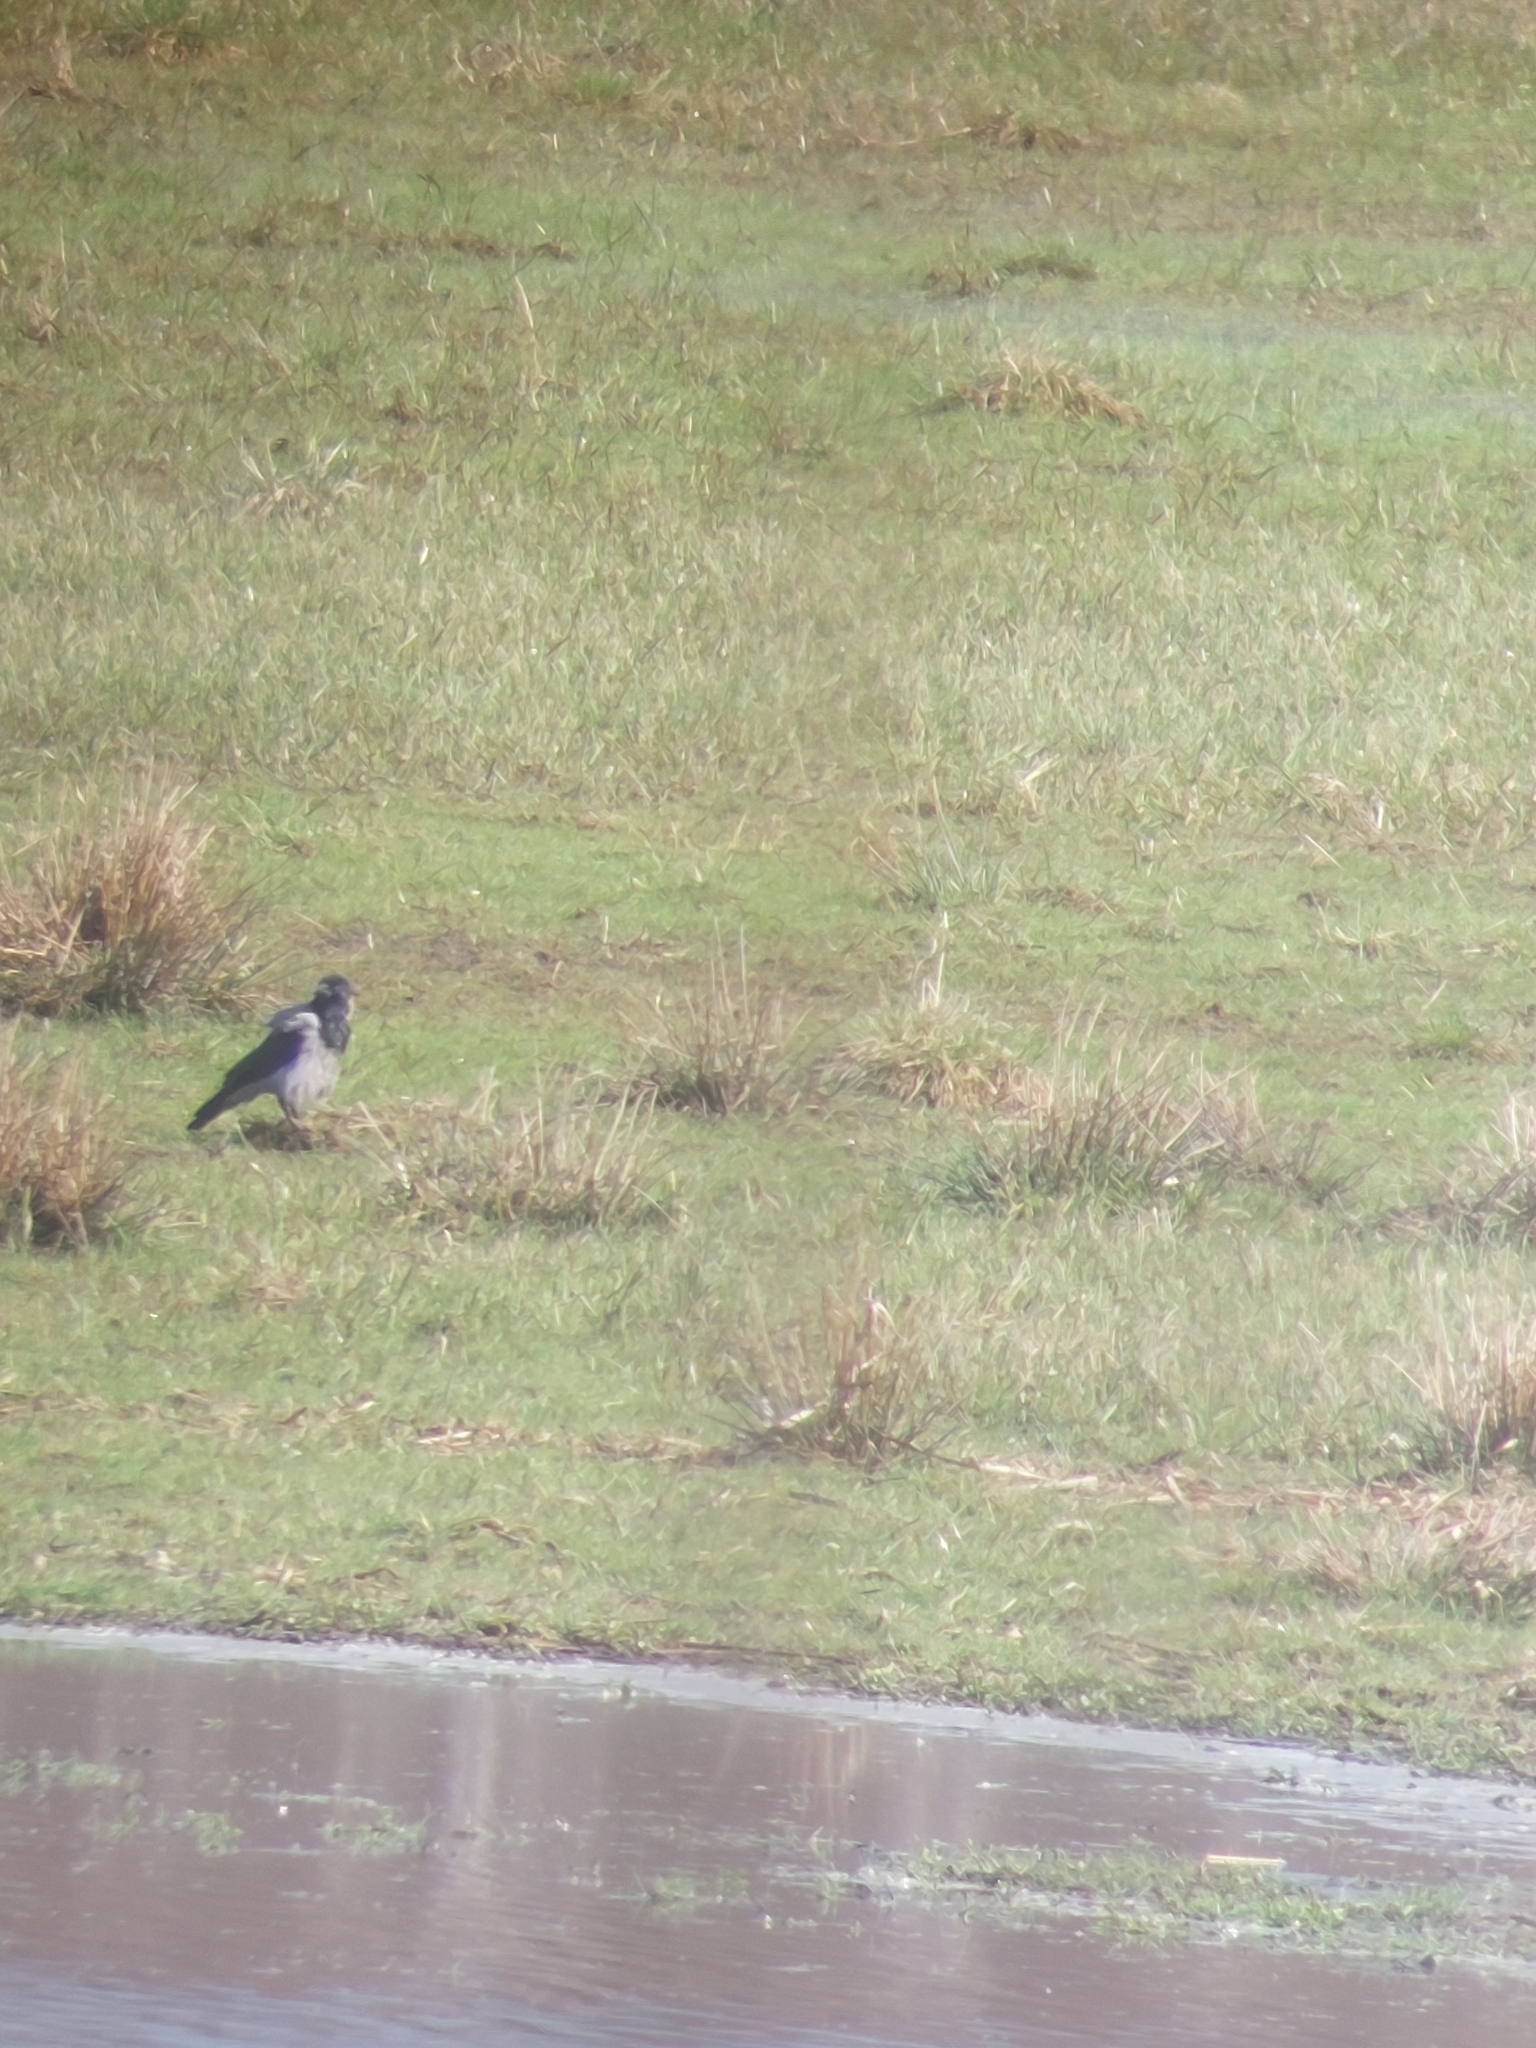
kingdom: Animalia
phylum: Chordata
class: Aves
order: Passeriformes
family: Corvidae
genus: Corvus
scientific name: Corvus cornix
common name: Hooded crow
